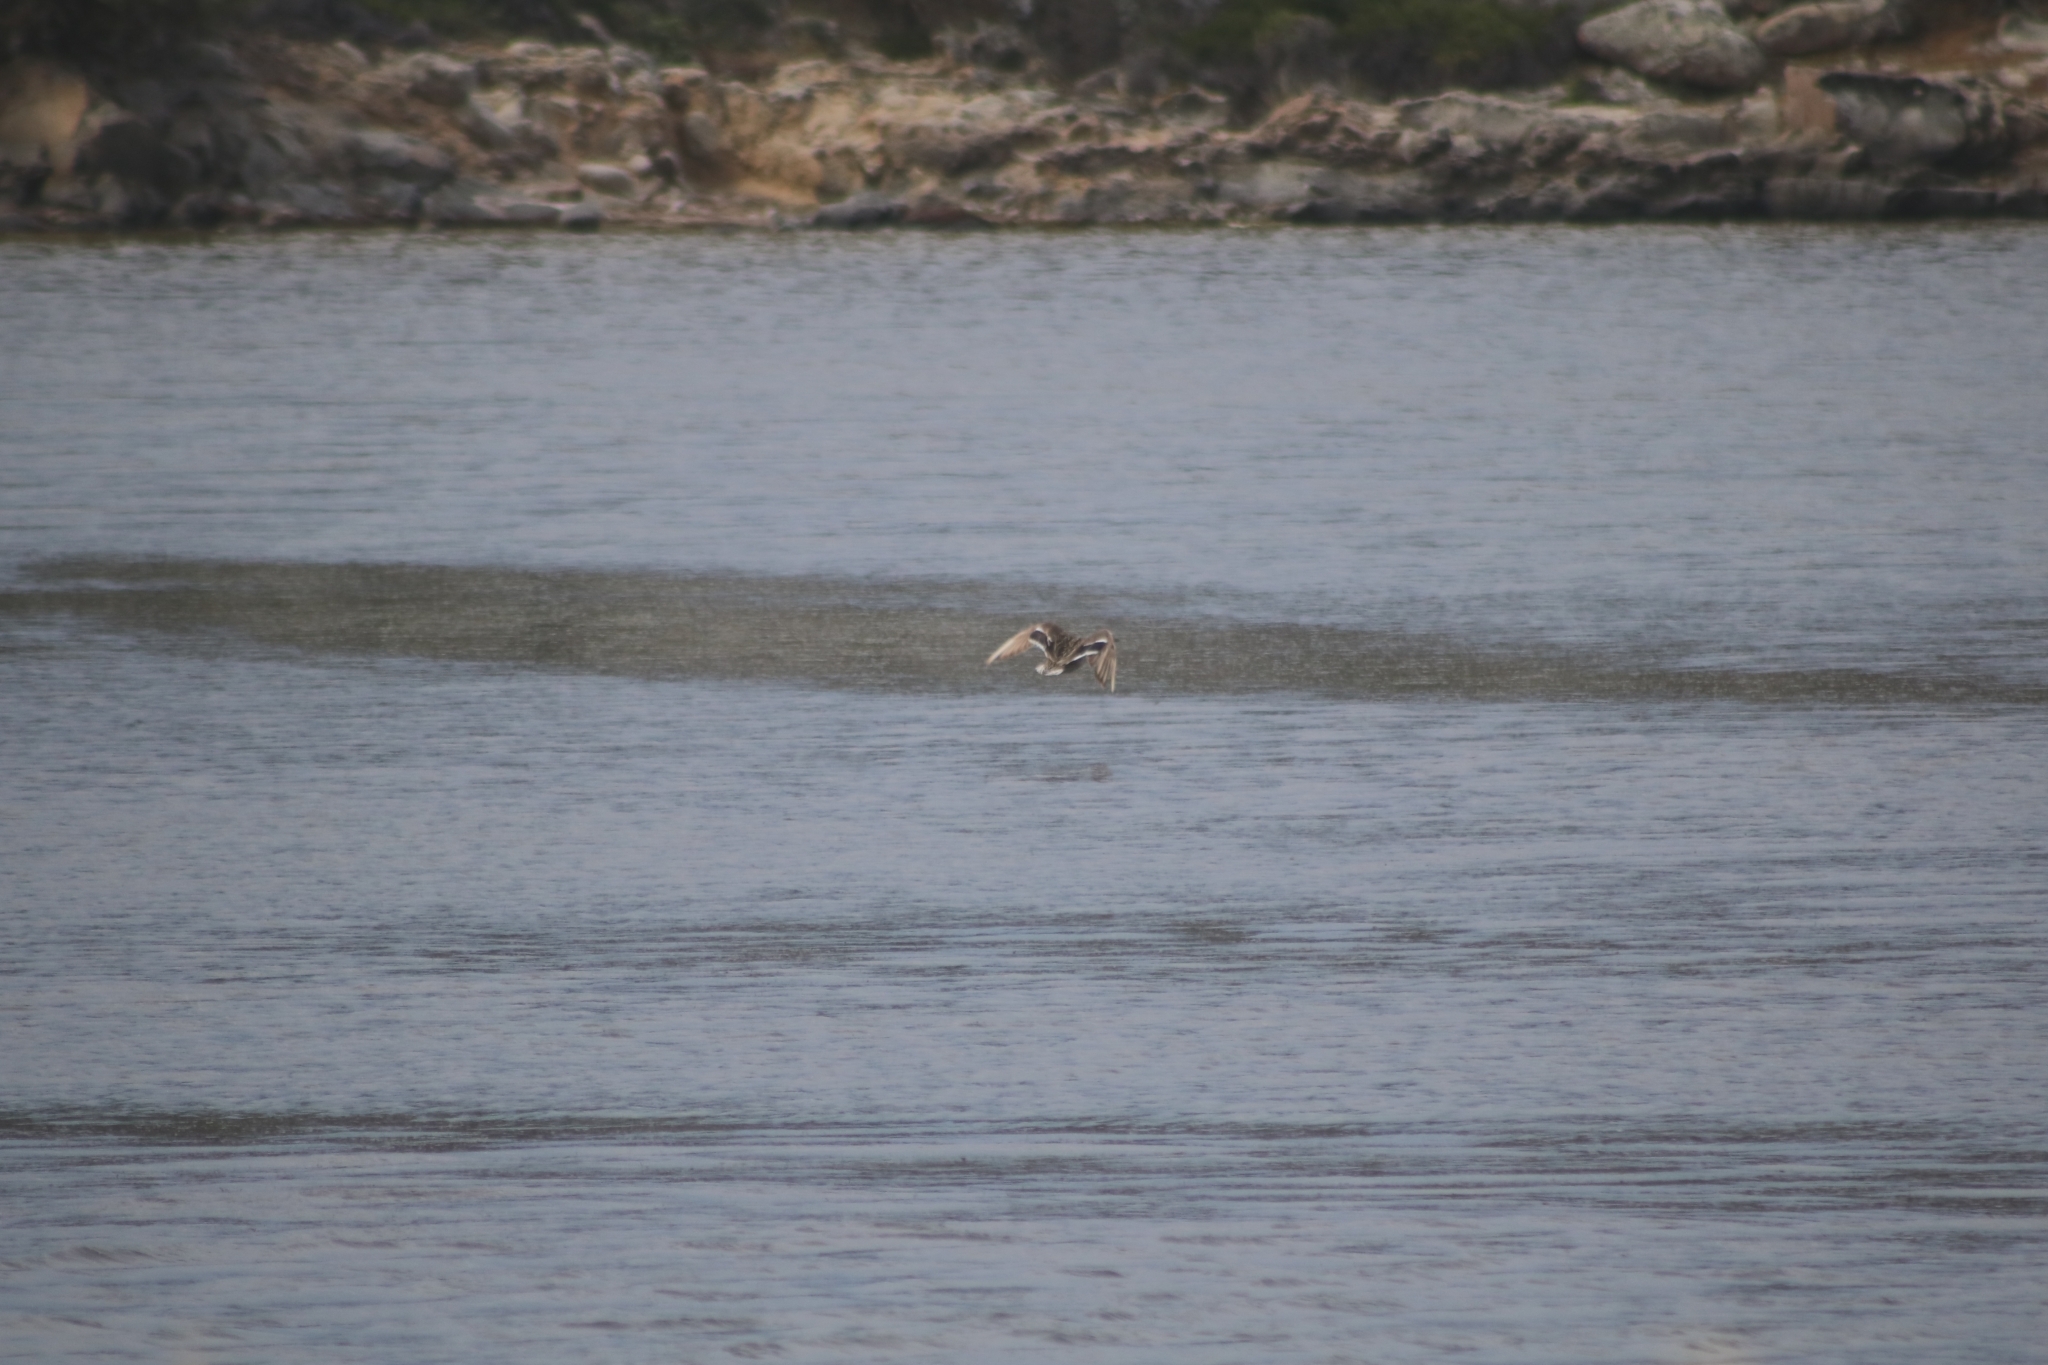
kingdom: Animalia
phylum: Chordata
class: Aves
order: Anseriformes
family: Anatidae
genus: Anas
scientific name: Anas platyrhynchos
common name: Mallard
